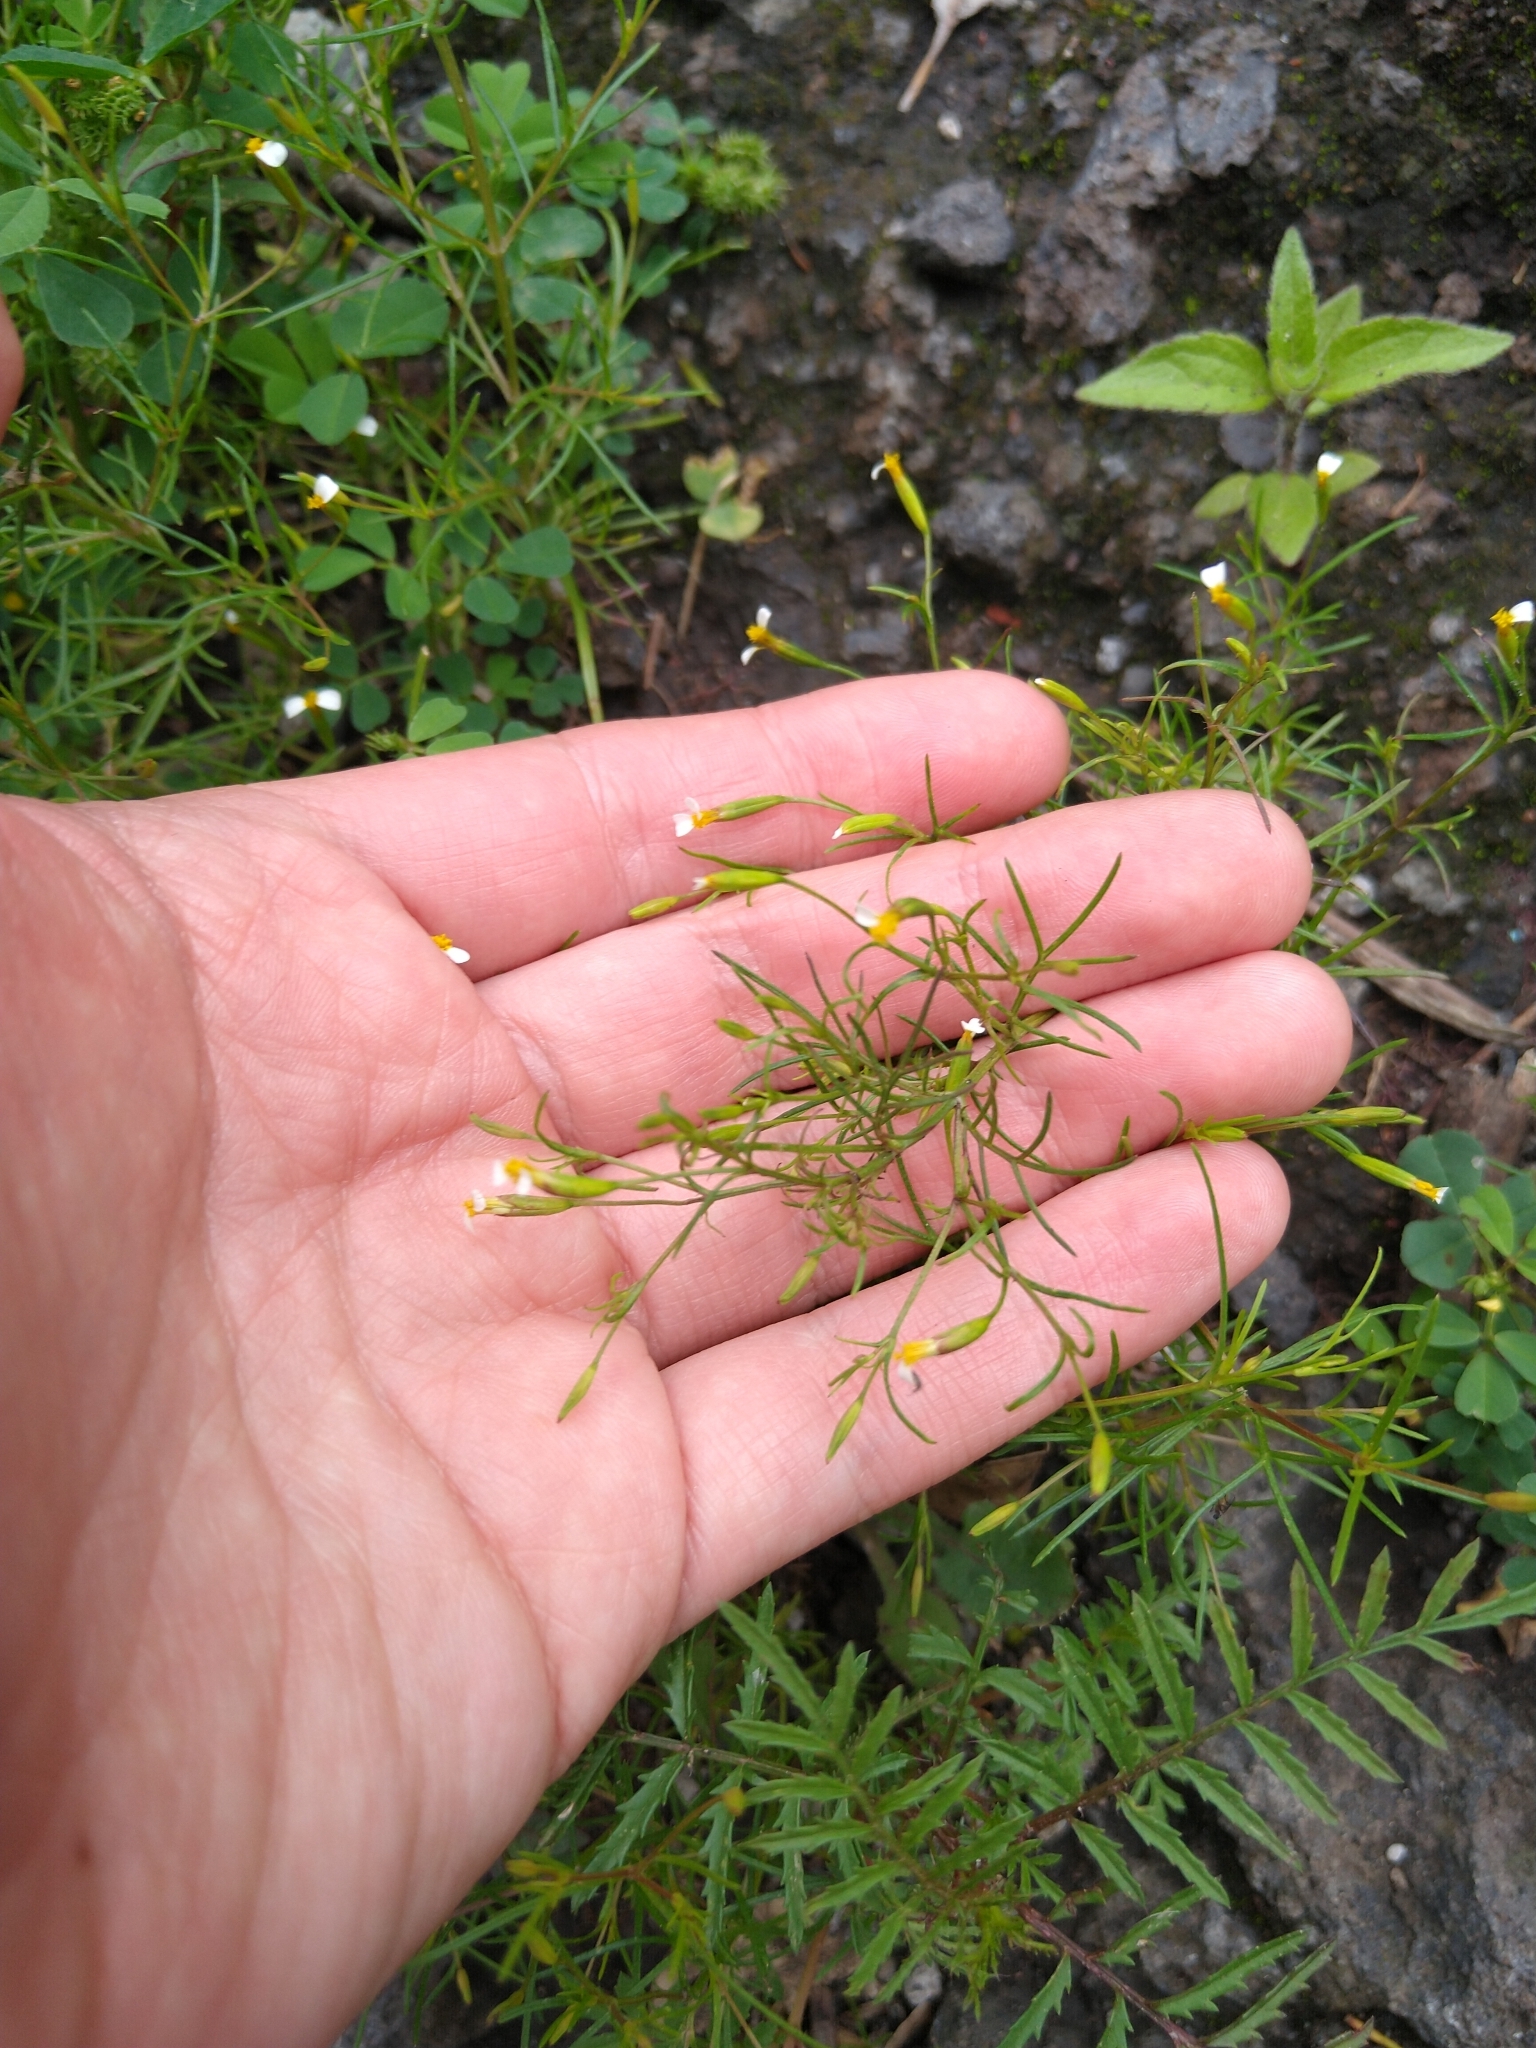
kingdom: Plantae
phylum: Tracheophyta
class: Magnoliopsida
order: Asterales
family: Asteraceae
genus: Tagetes
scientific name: Tagetes micrantha
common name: Licorice marigold
